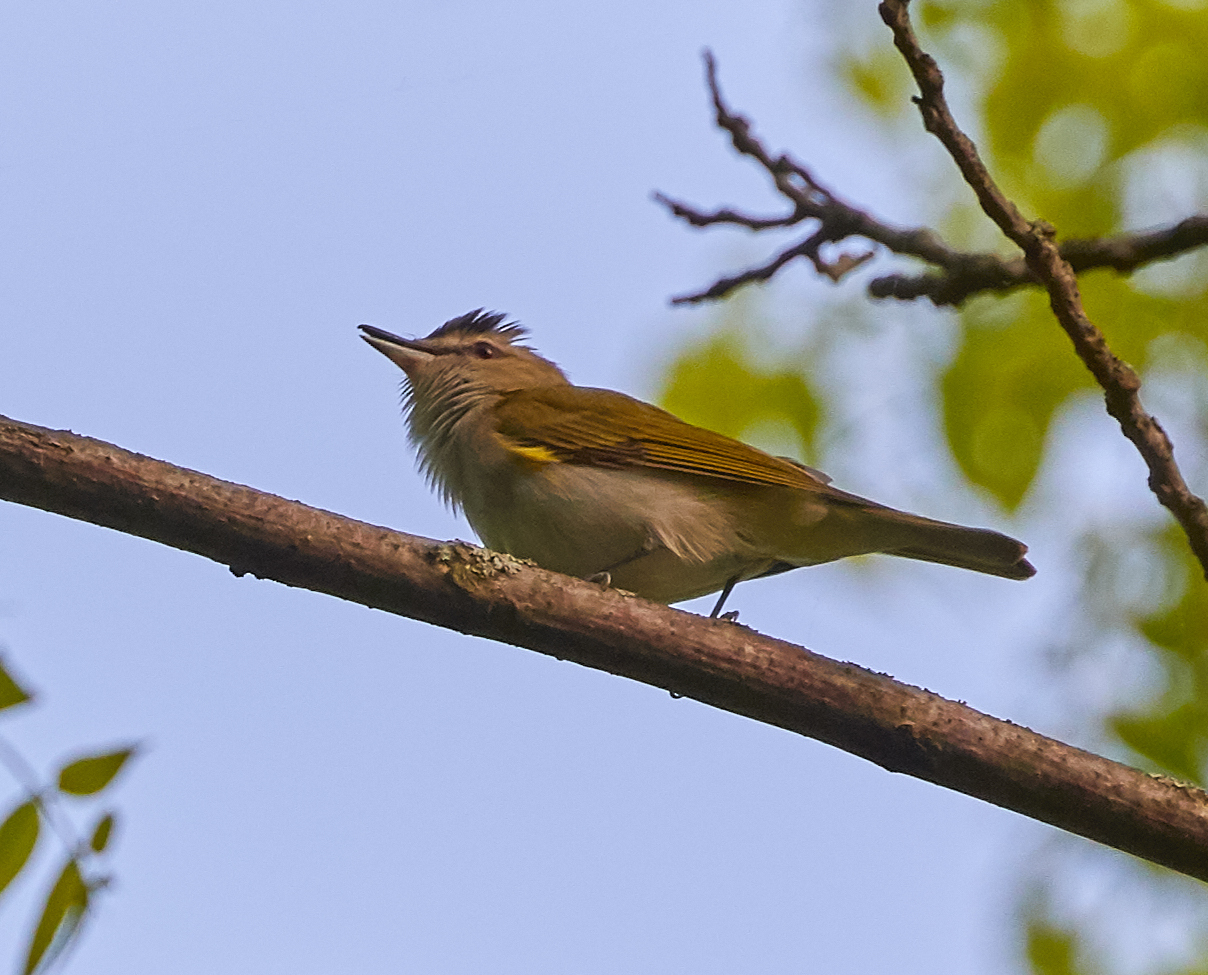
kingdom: Animalia
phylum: Chordata
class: Aves
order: Passeriformes
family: Vireonidae
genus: Vireo
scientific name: Vireo olivaceus
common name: Red-eyed vireo
